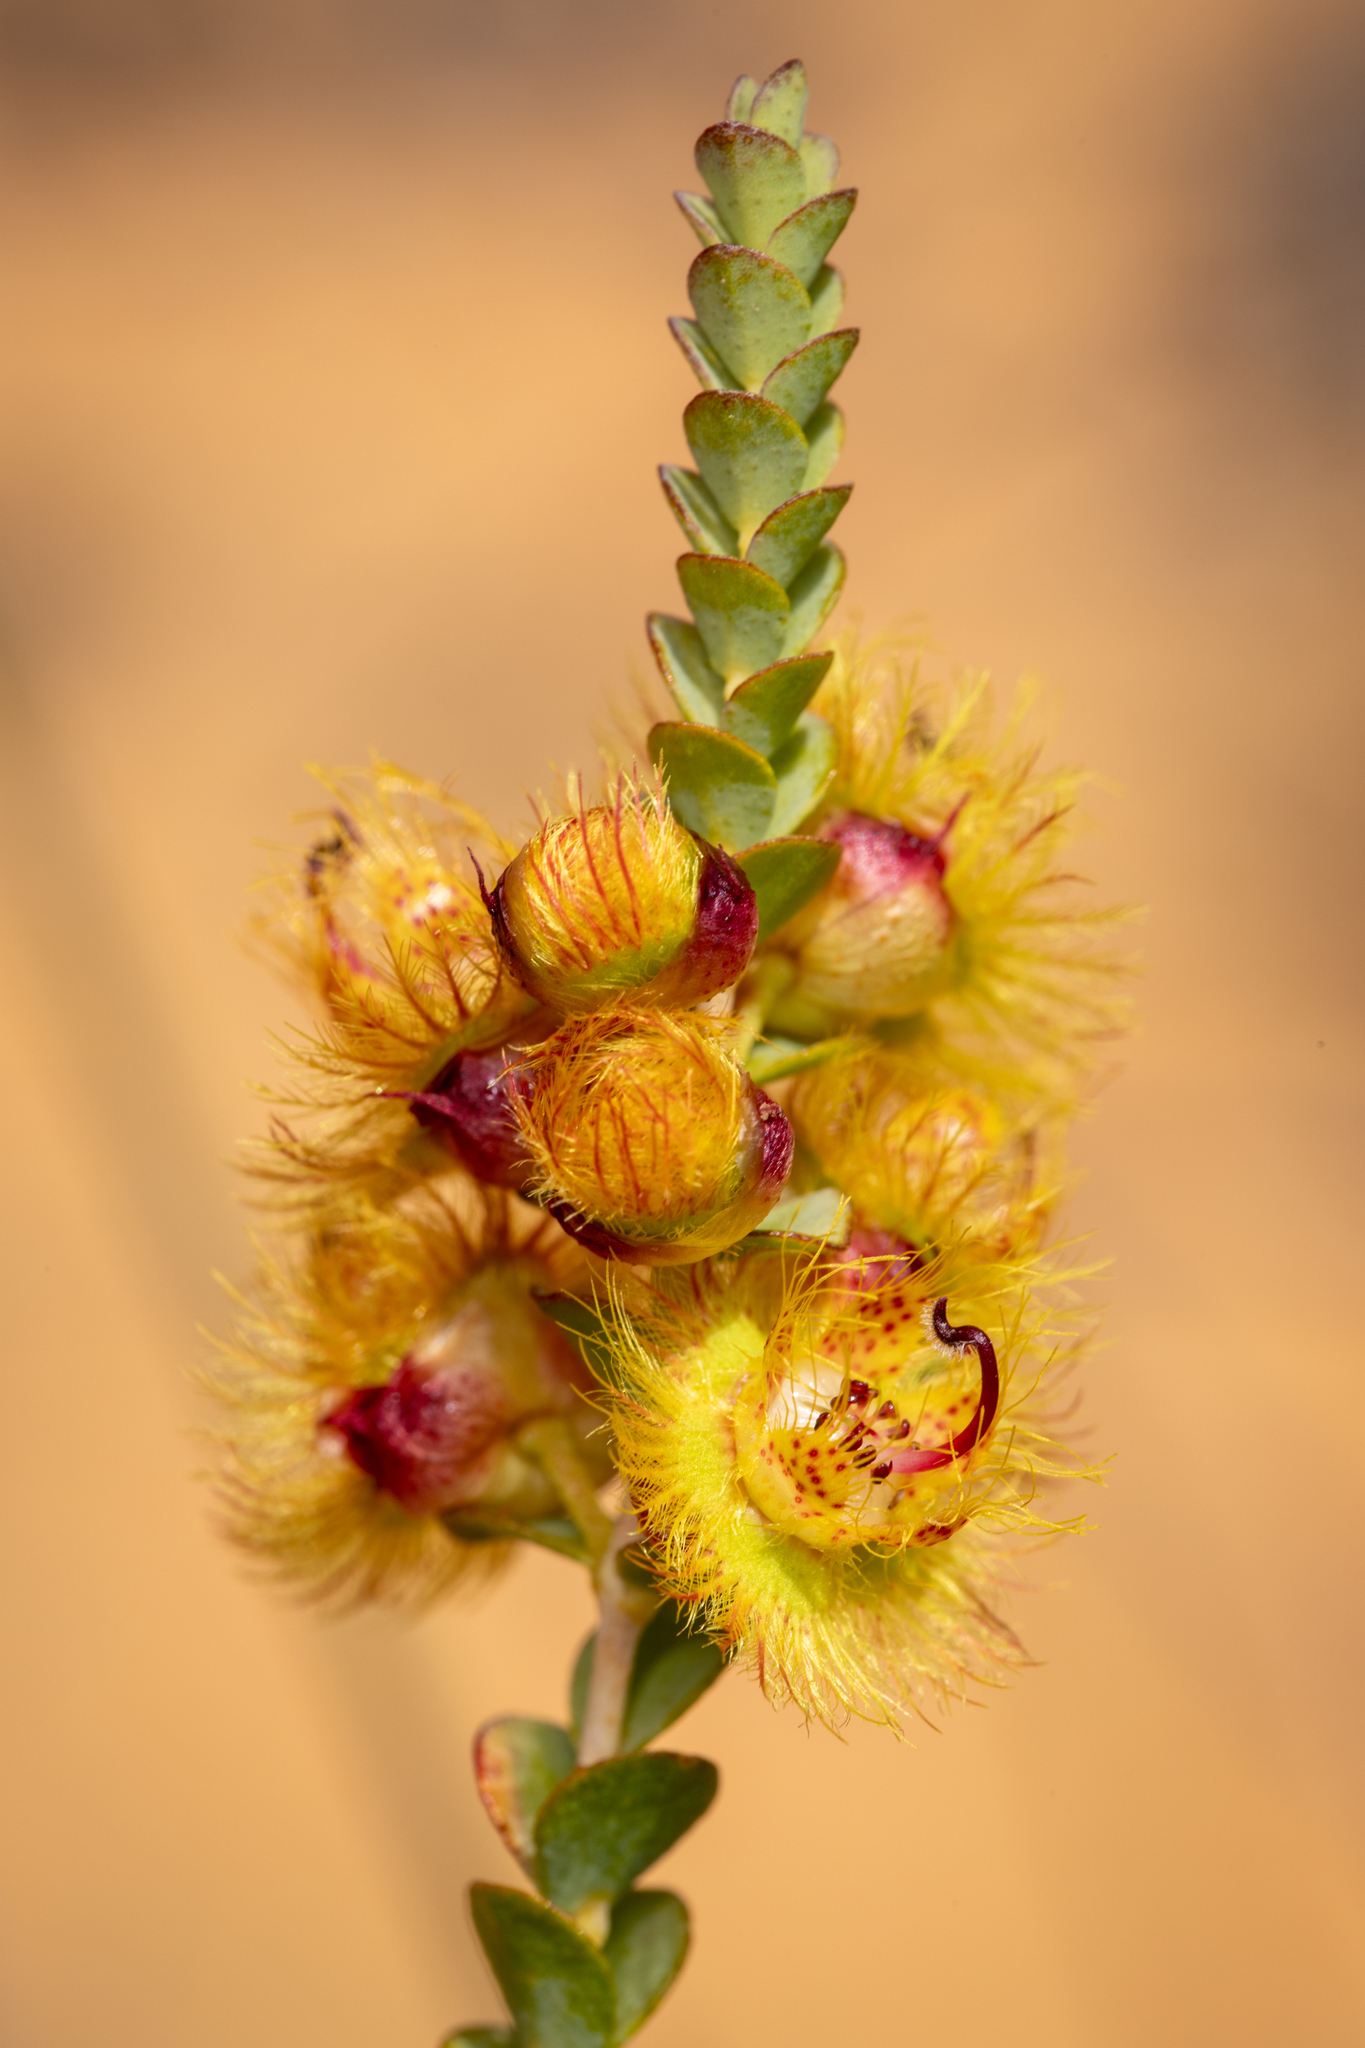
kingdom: Plantae
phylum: Tracheophyta
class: Magnoliopsida
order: Myrtales
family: Myrtaceae
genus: Verticordia
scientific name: Verticordia chrysostachys
